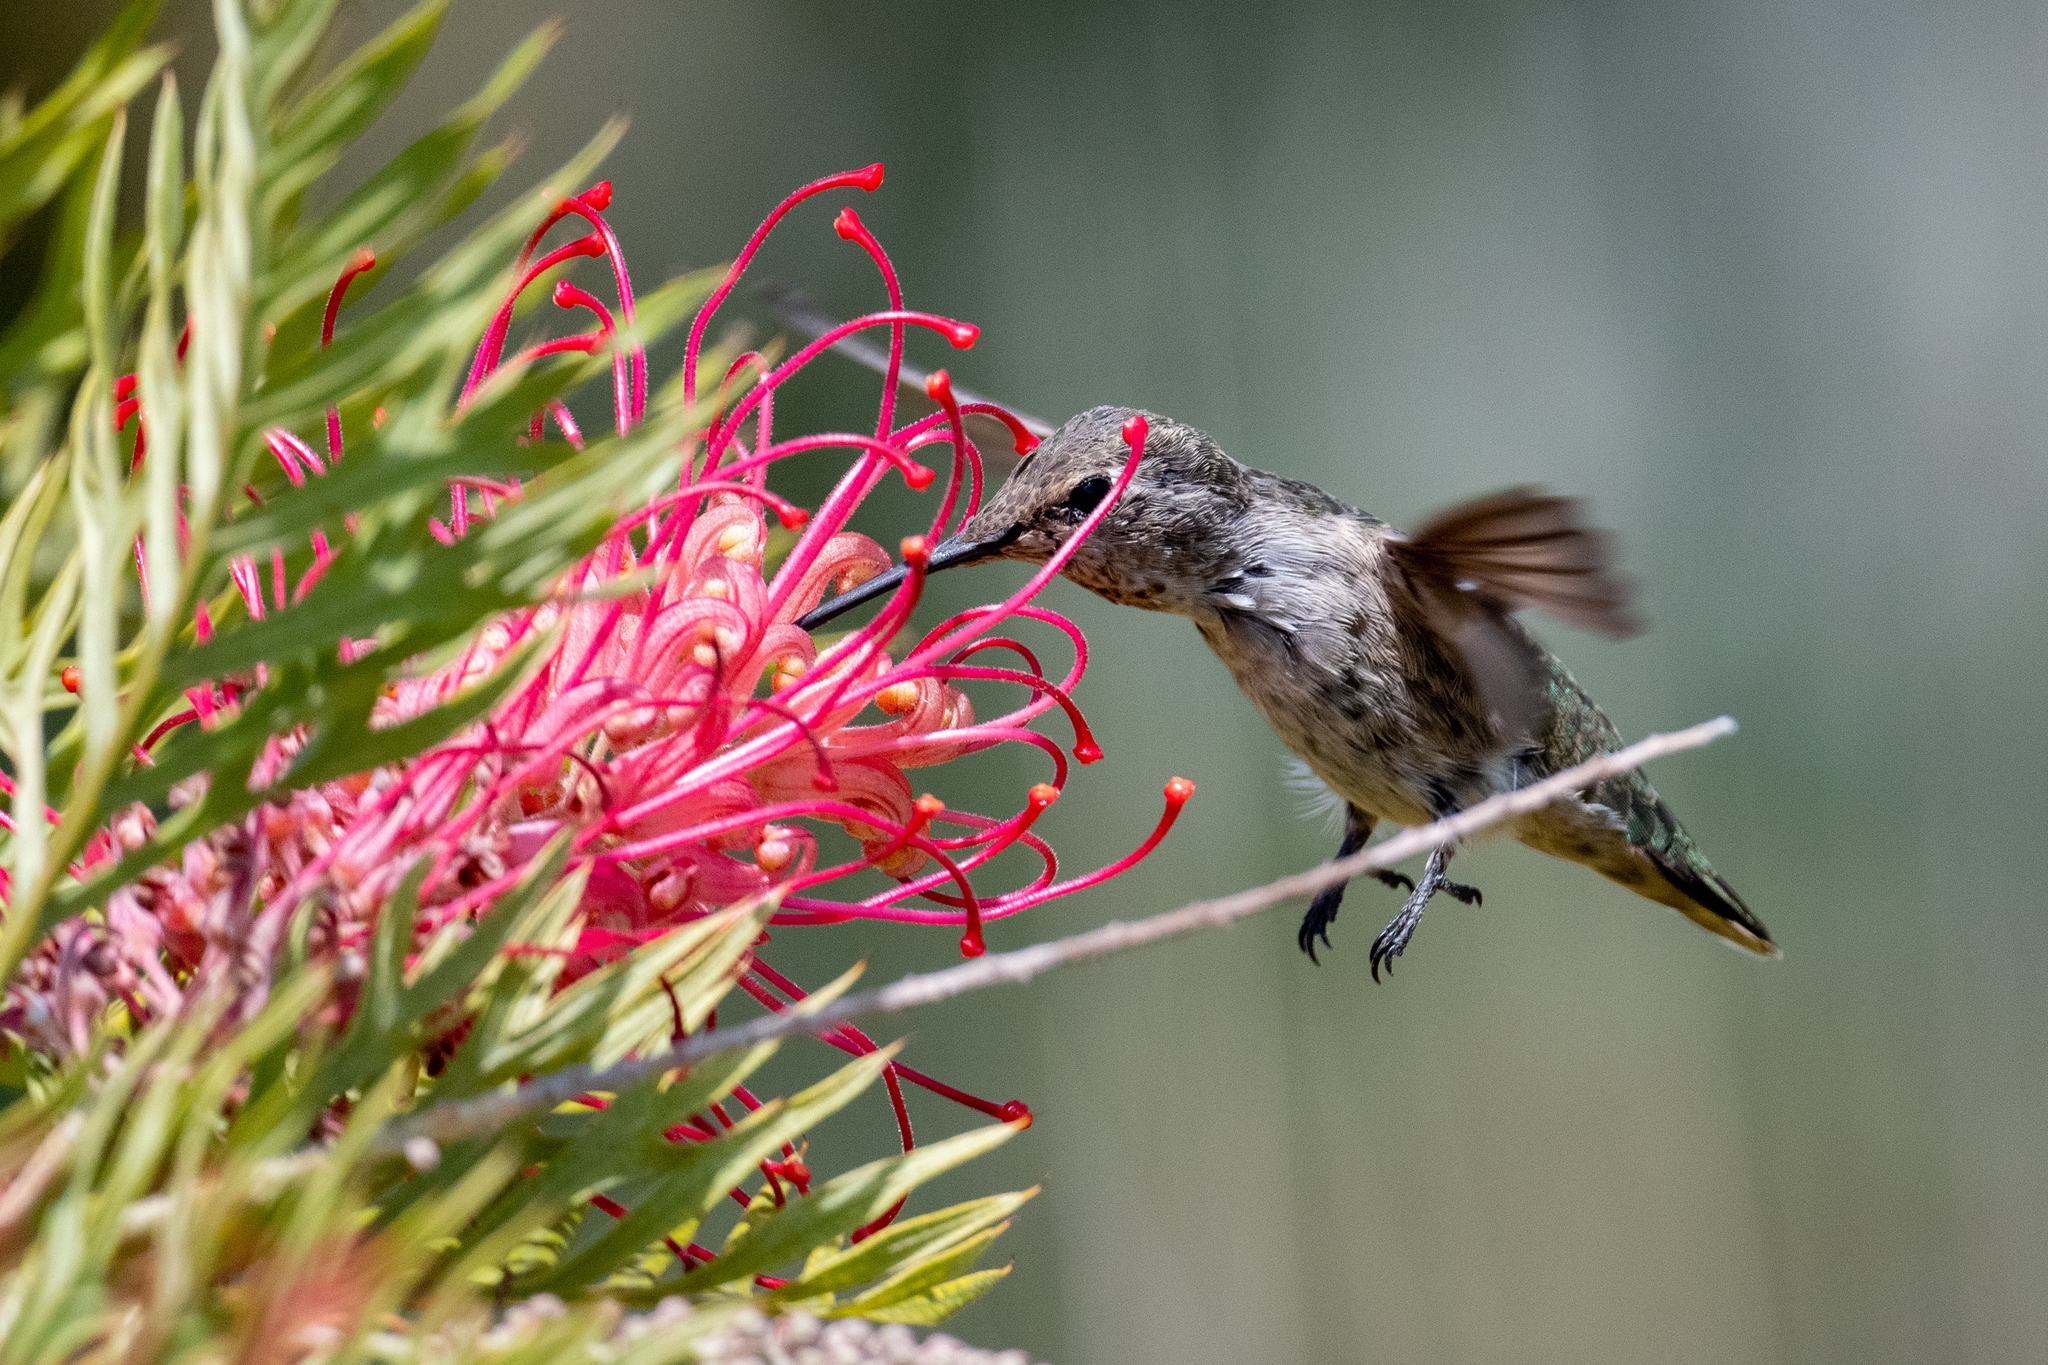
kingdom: Animalia
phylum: Chordata
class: Aves
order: Apodiformes
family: Trochilidae
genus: Calypte
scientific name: Calypte anna
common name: Anna's hummingbird
